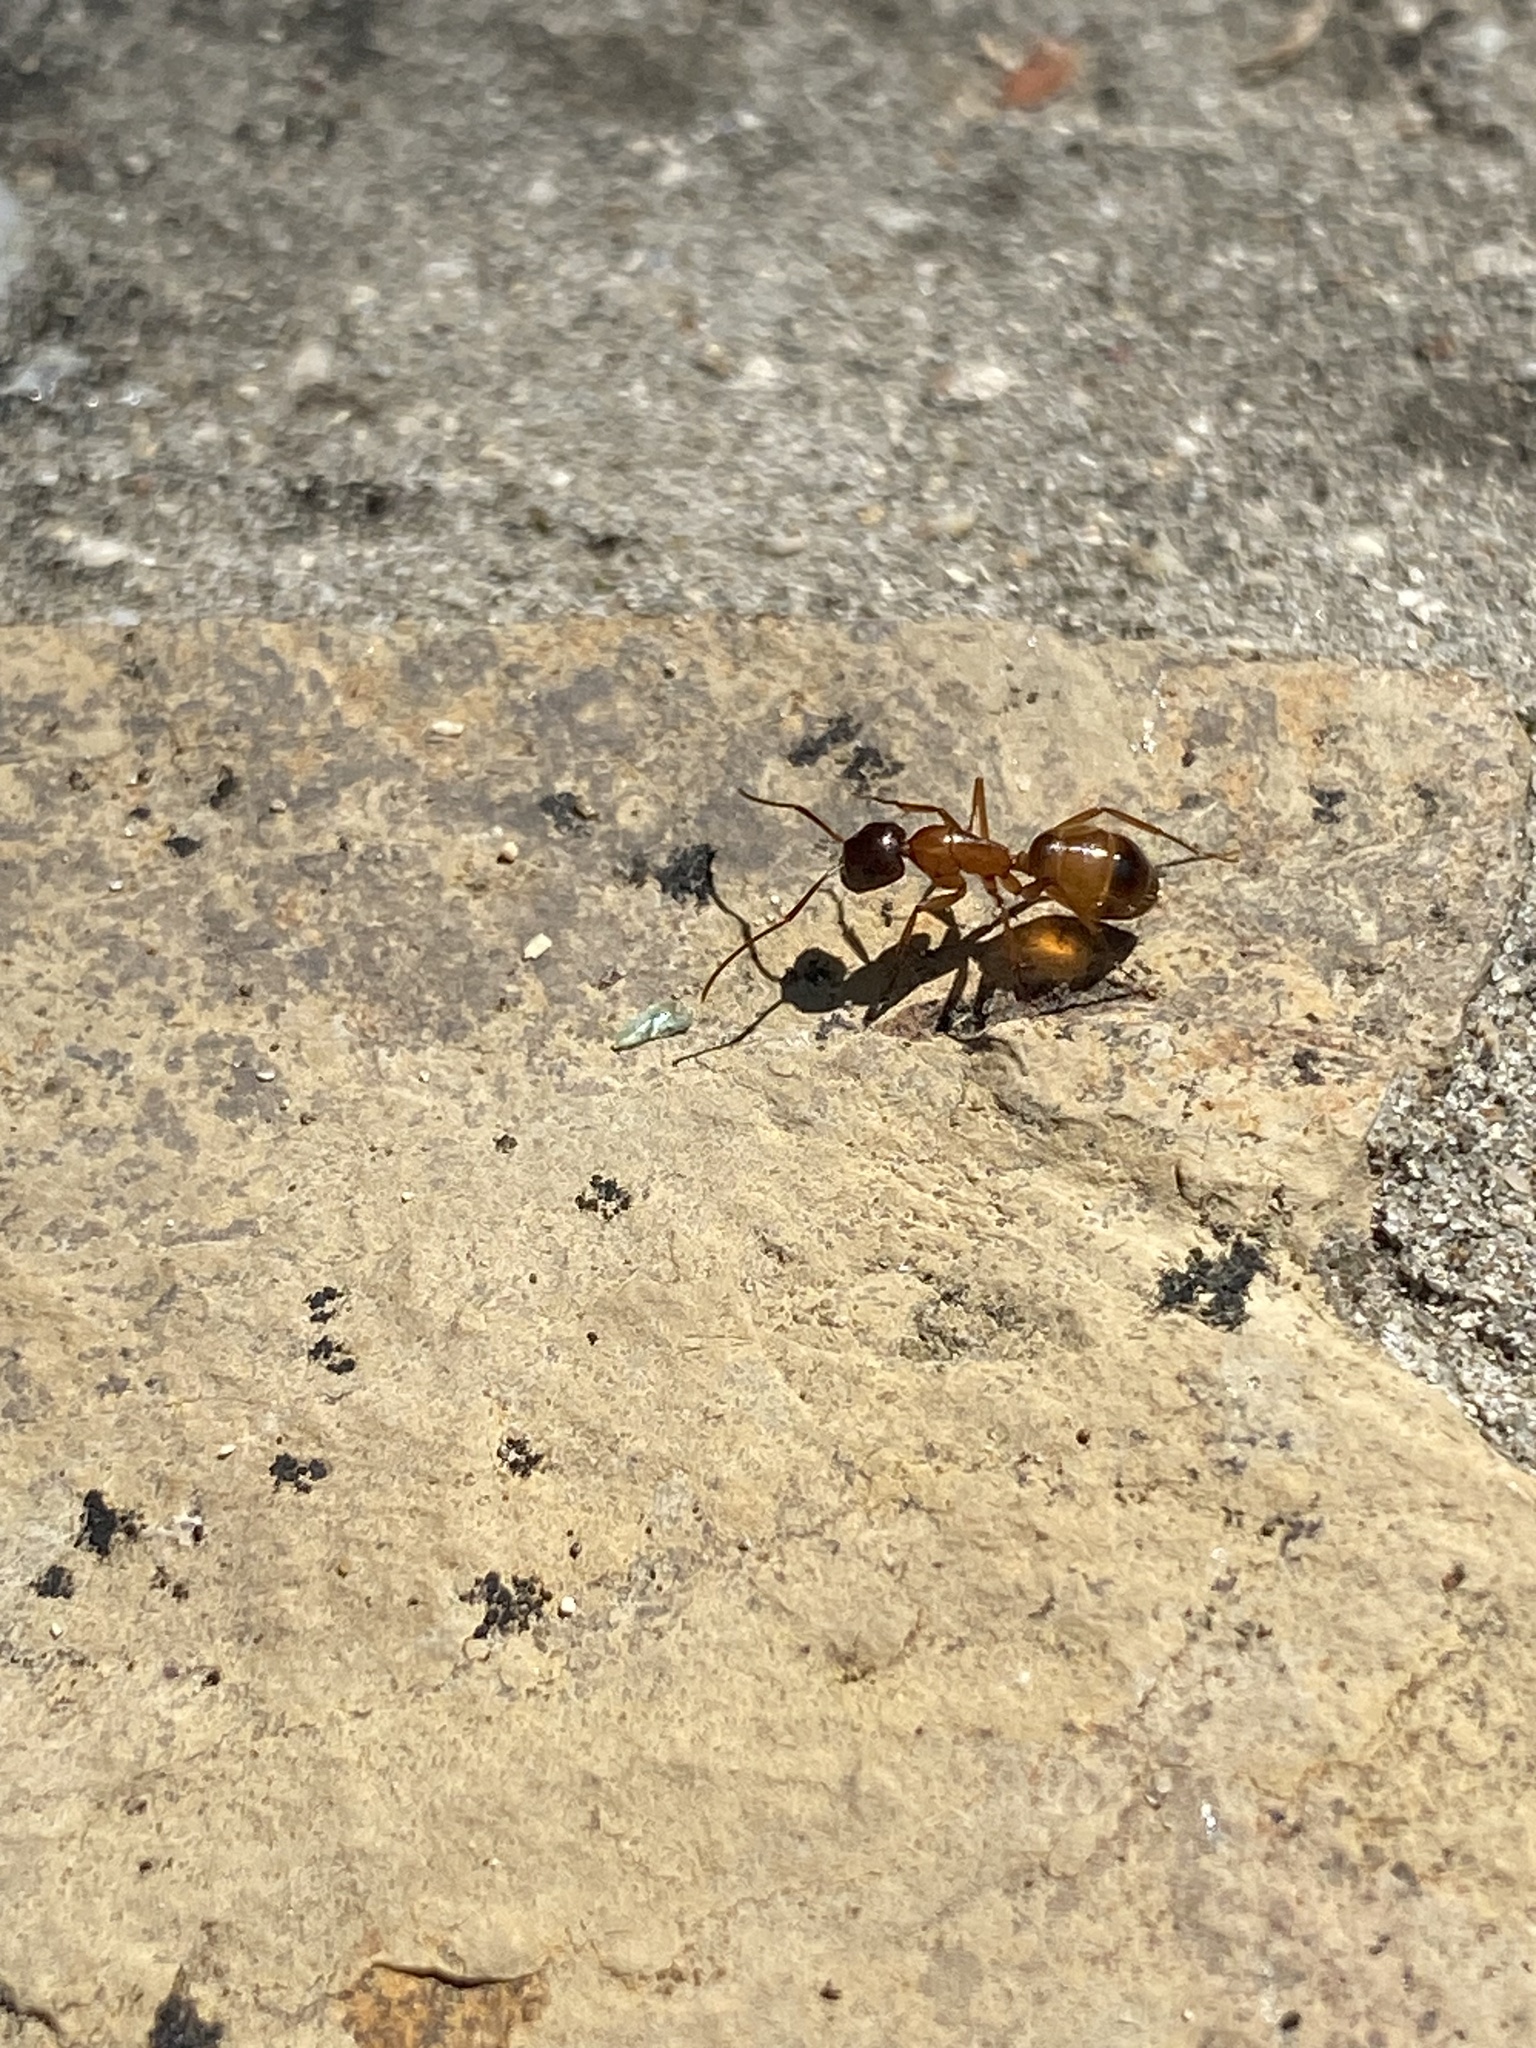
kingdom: Animalia
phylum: Arthropoda
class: Insecta
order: Hymenoptera
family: Formicidae
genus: Camponotus
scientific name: Camponotus sansabeanus
